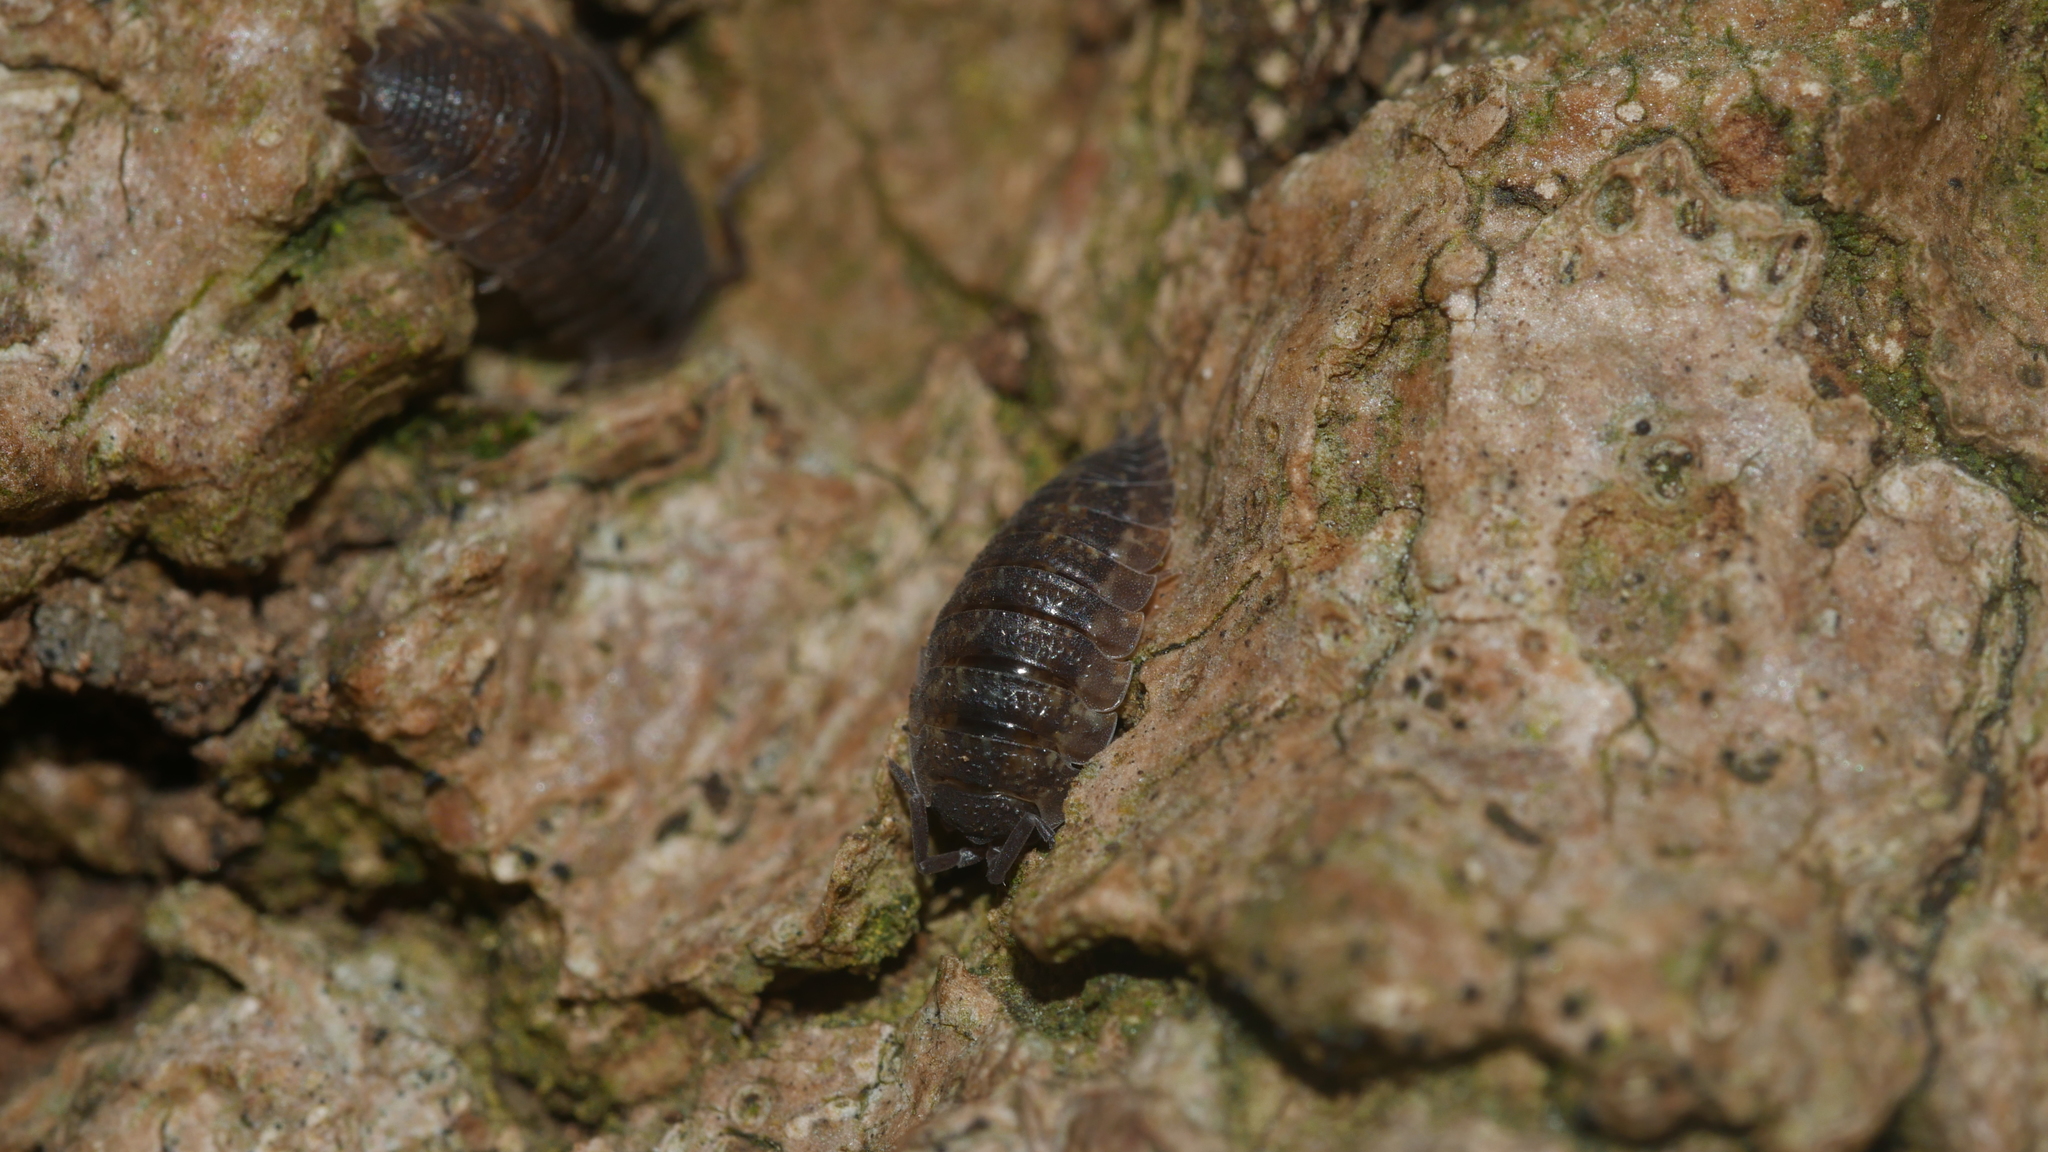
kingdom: Animalia
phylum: Arthropoda
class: Malacostraca
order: Isopoda
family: Porcellionidae
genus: Porcellio
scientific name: Porcellio scaber
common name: Common rough woodlouse
